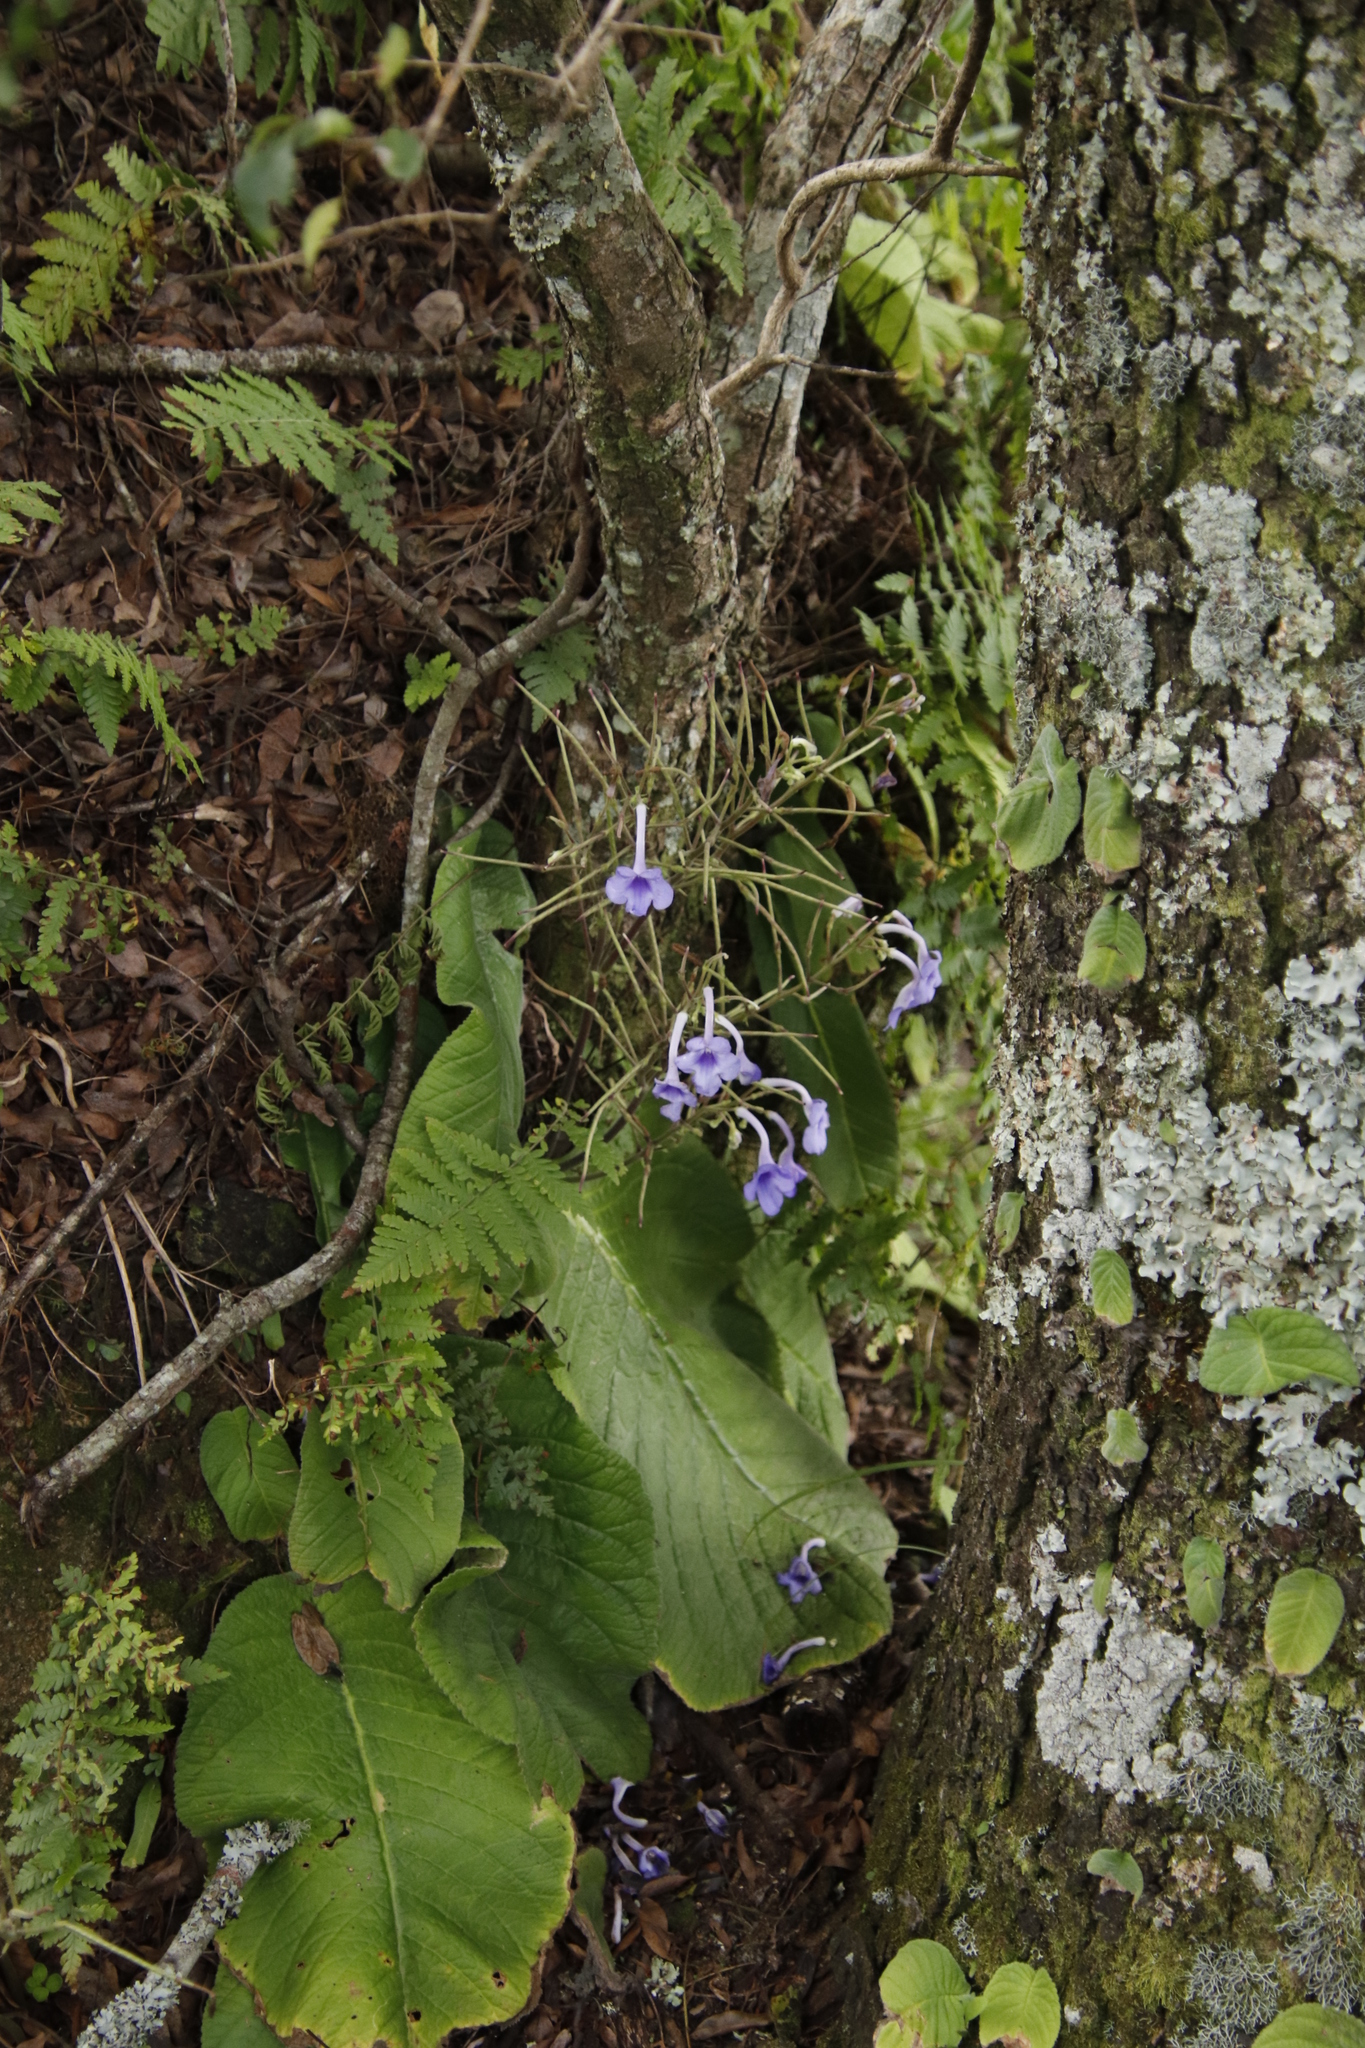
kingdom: Plantae
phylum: Tracheophyta
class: Magnoliopsida
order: Lamiales
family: Gesneriaceae
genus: Streptocarpus
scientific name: Streptocarpus eylesii
